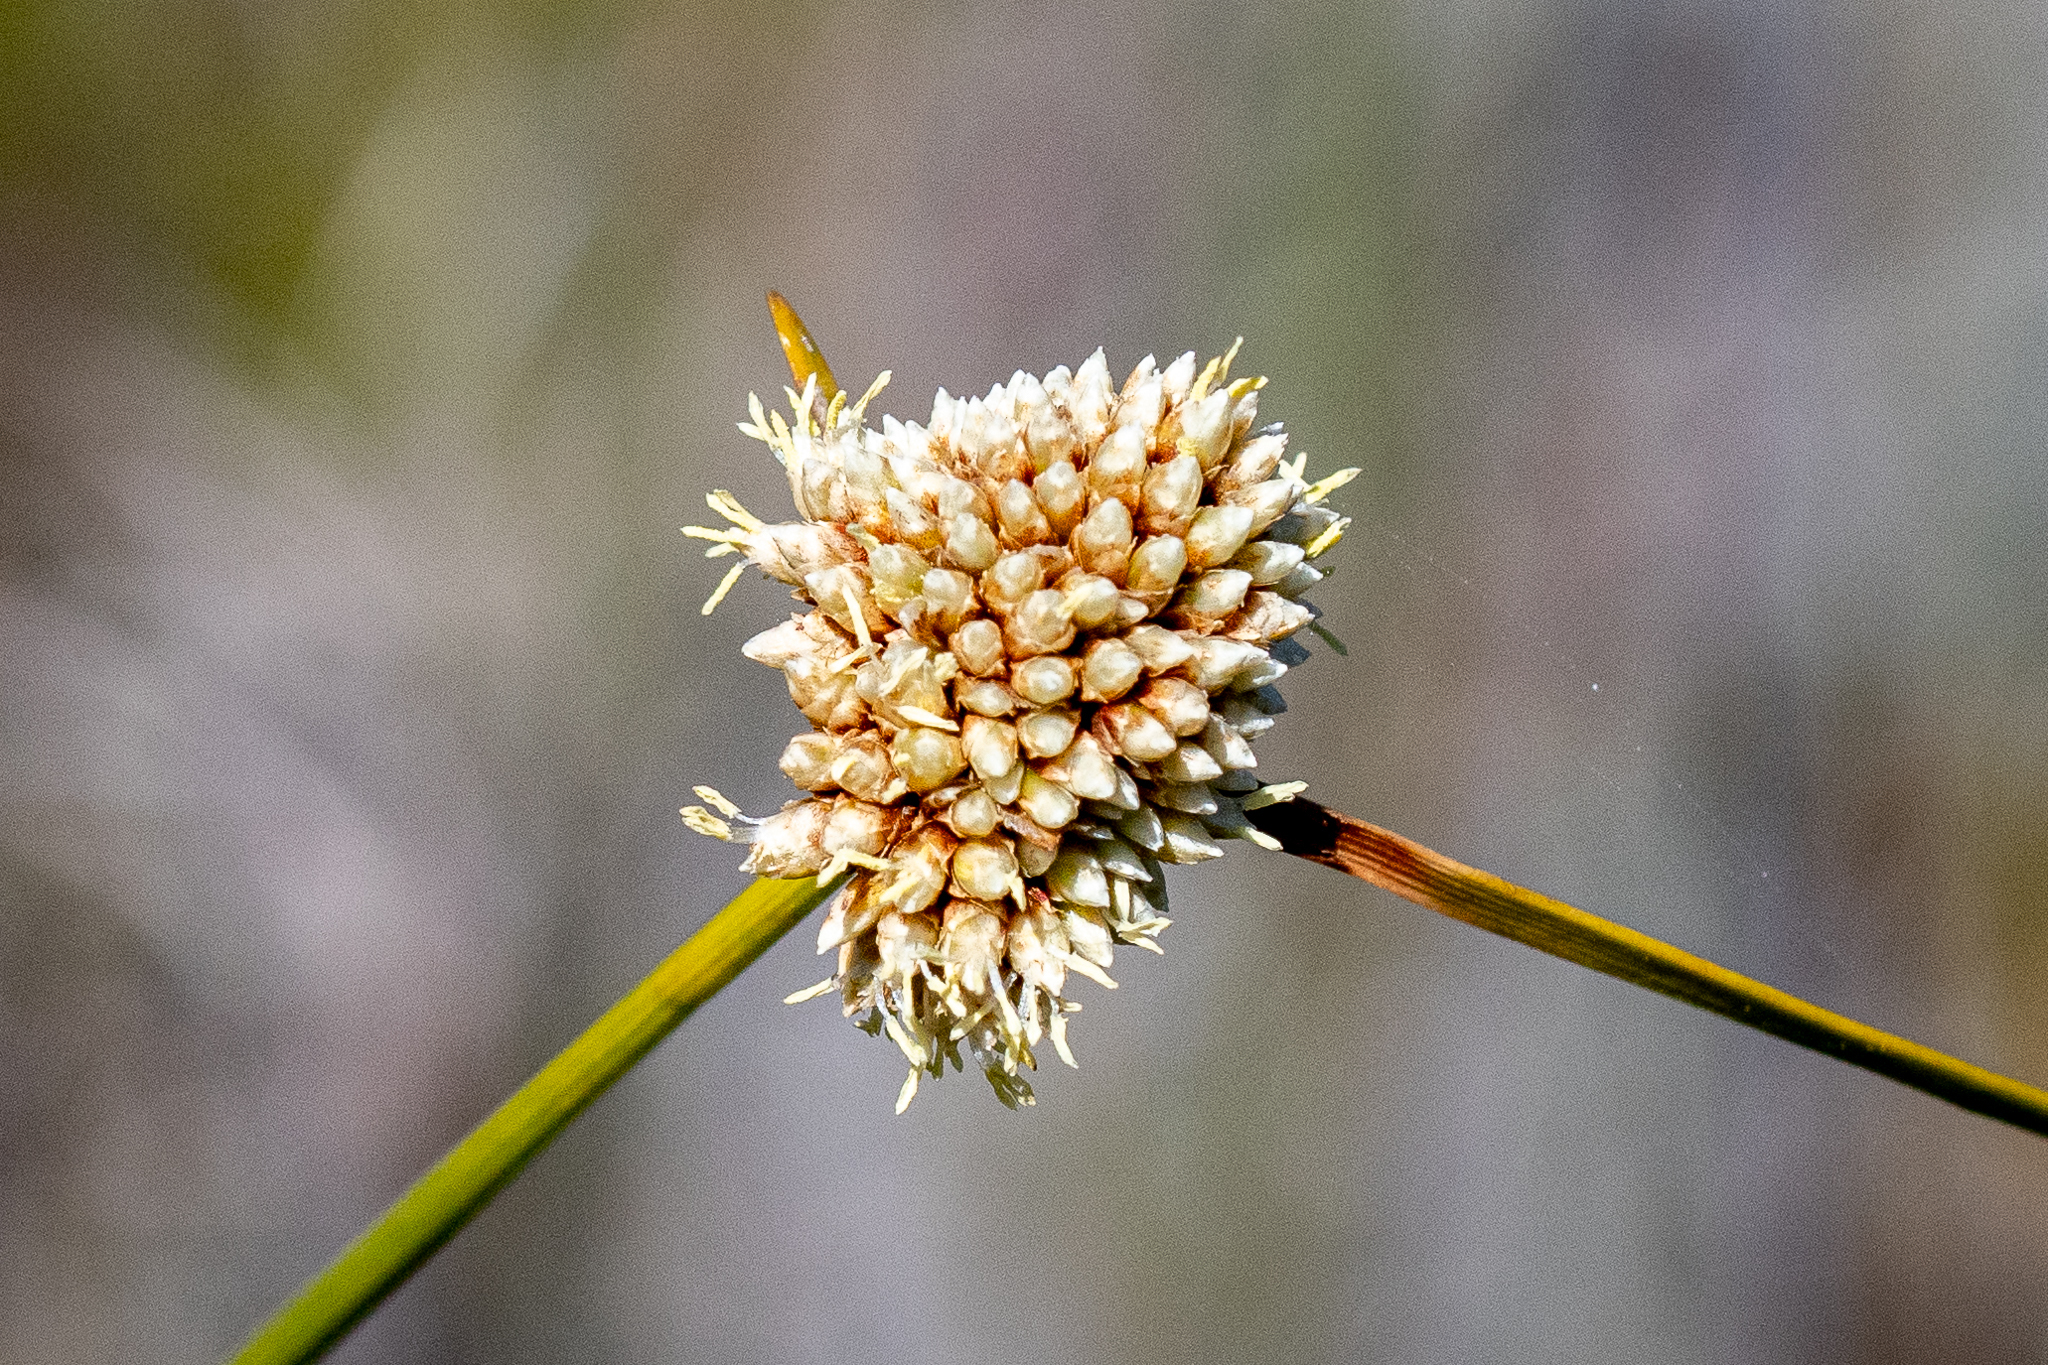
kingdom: Plantae
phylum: Tracheophyta
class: Liliopsida
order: Poales
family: Cyperaceae
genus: Ficinia
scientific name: Ficinia praemorsa
